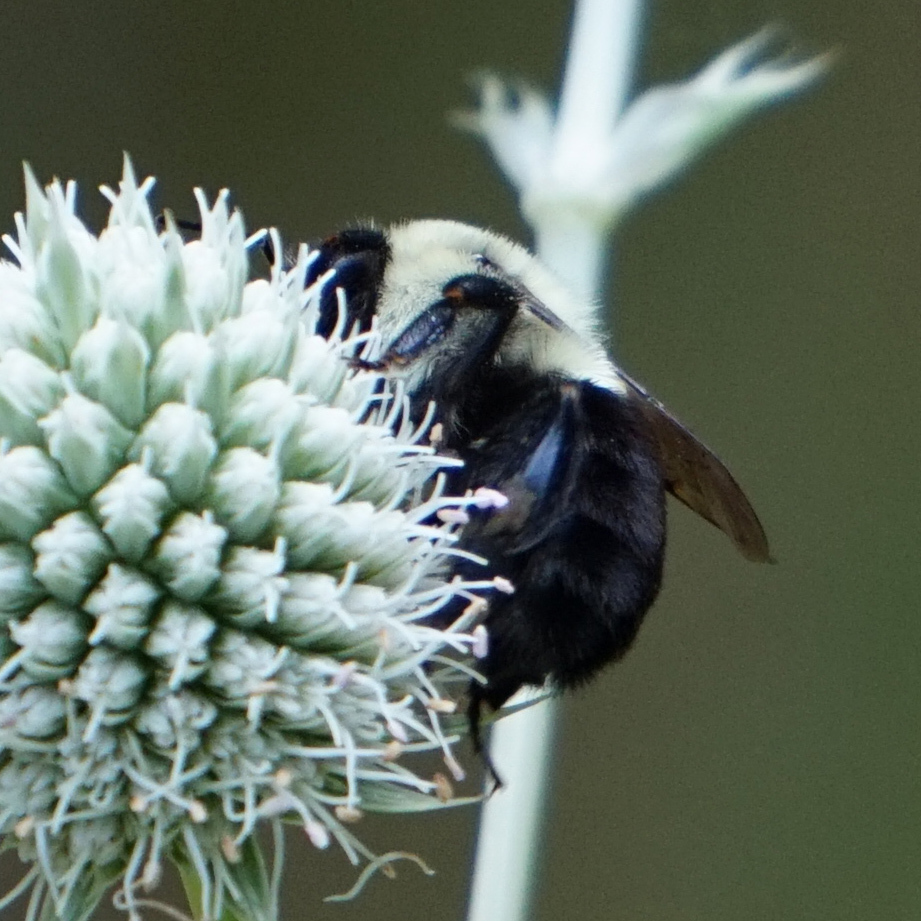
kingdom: Animalia
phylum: Arthropoda
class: Insecta
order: Hymenoptera
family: Apidae
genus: Bombus
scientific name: Bombus impatiens
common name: Common eastern bumble bee
